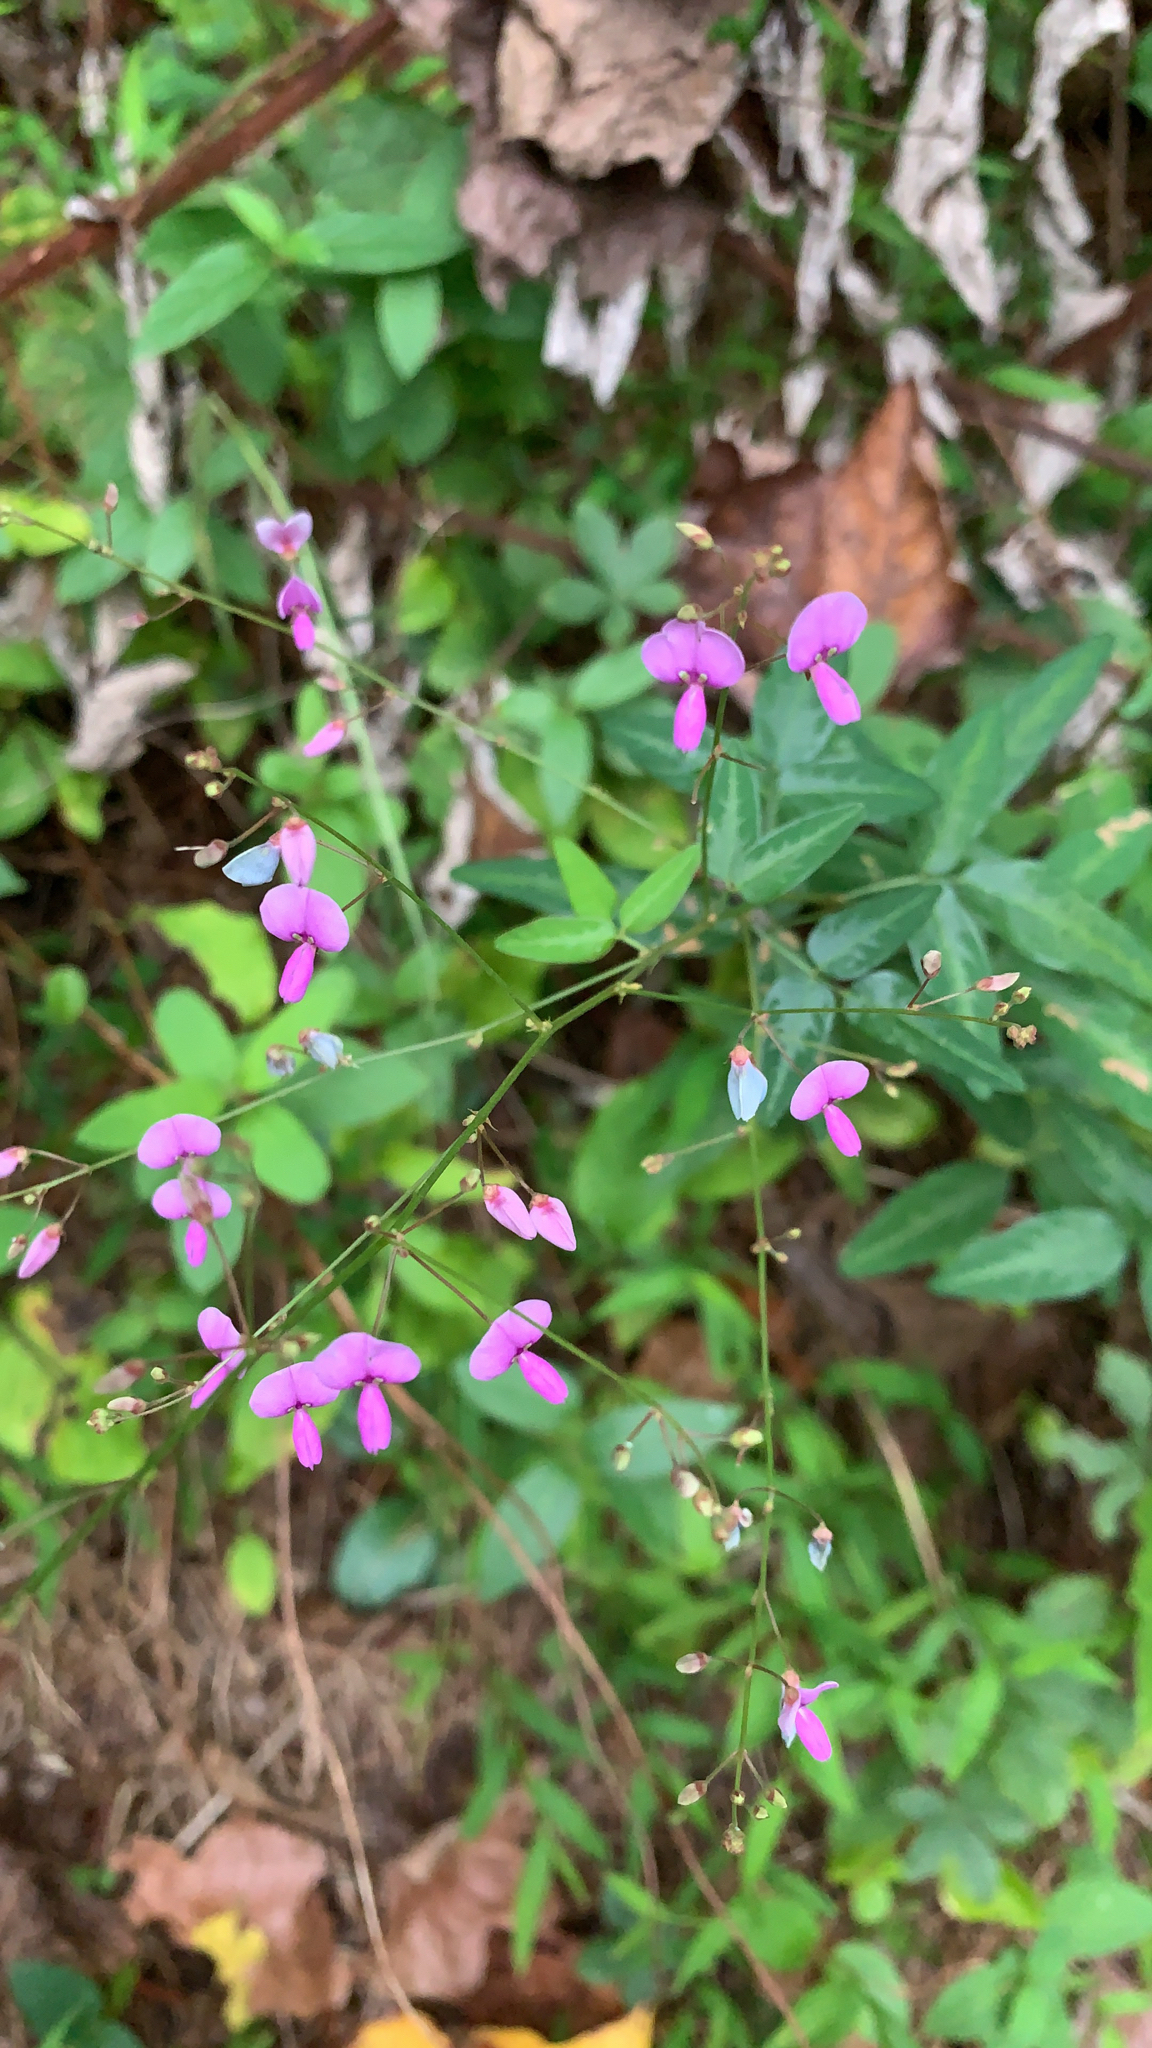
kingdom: Plantae
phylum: Tracheophyta
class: Magnoliopsida
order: Fabales
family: Fabaceae
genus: Desmodium
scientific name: Desmodium paniculatum
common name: Panicled tick-clover
